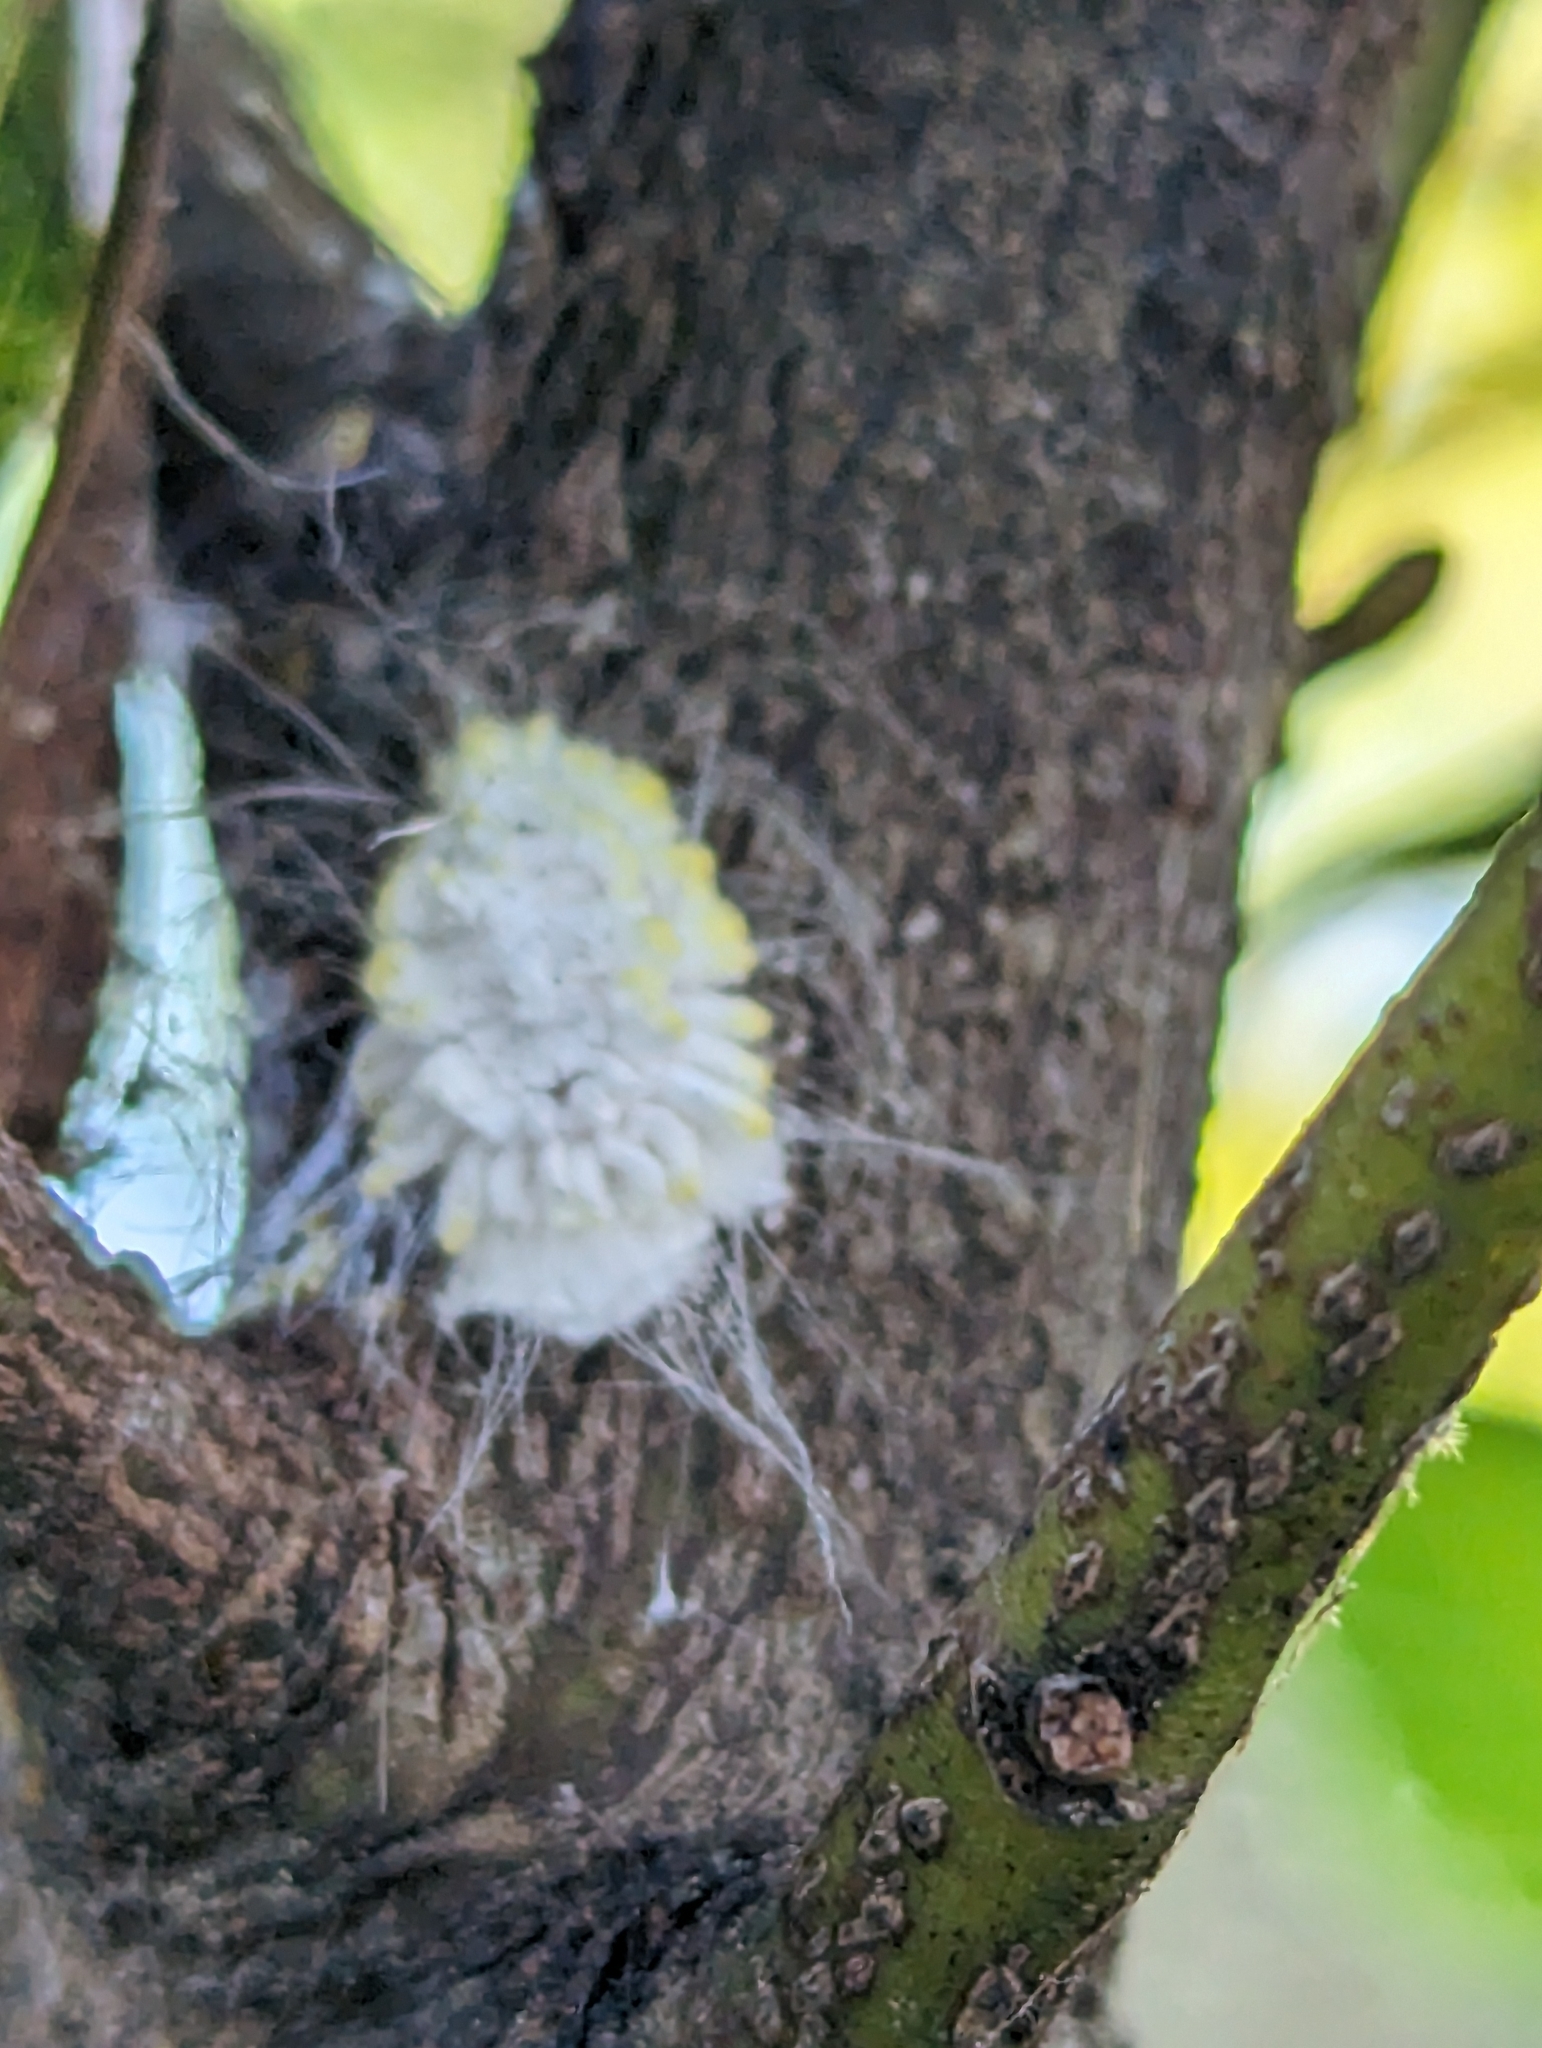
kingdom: Animalia
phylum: Arthropoda
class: Insecta
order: Hemiptera
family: Margarodidae
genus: Icerya
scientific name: Icerya seychellarum
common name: Iceplant scale
